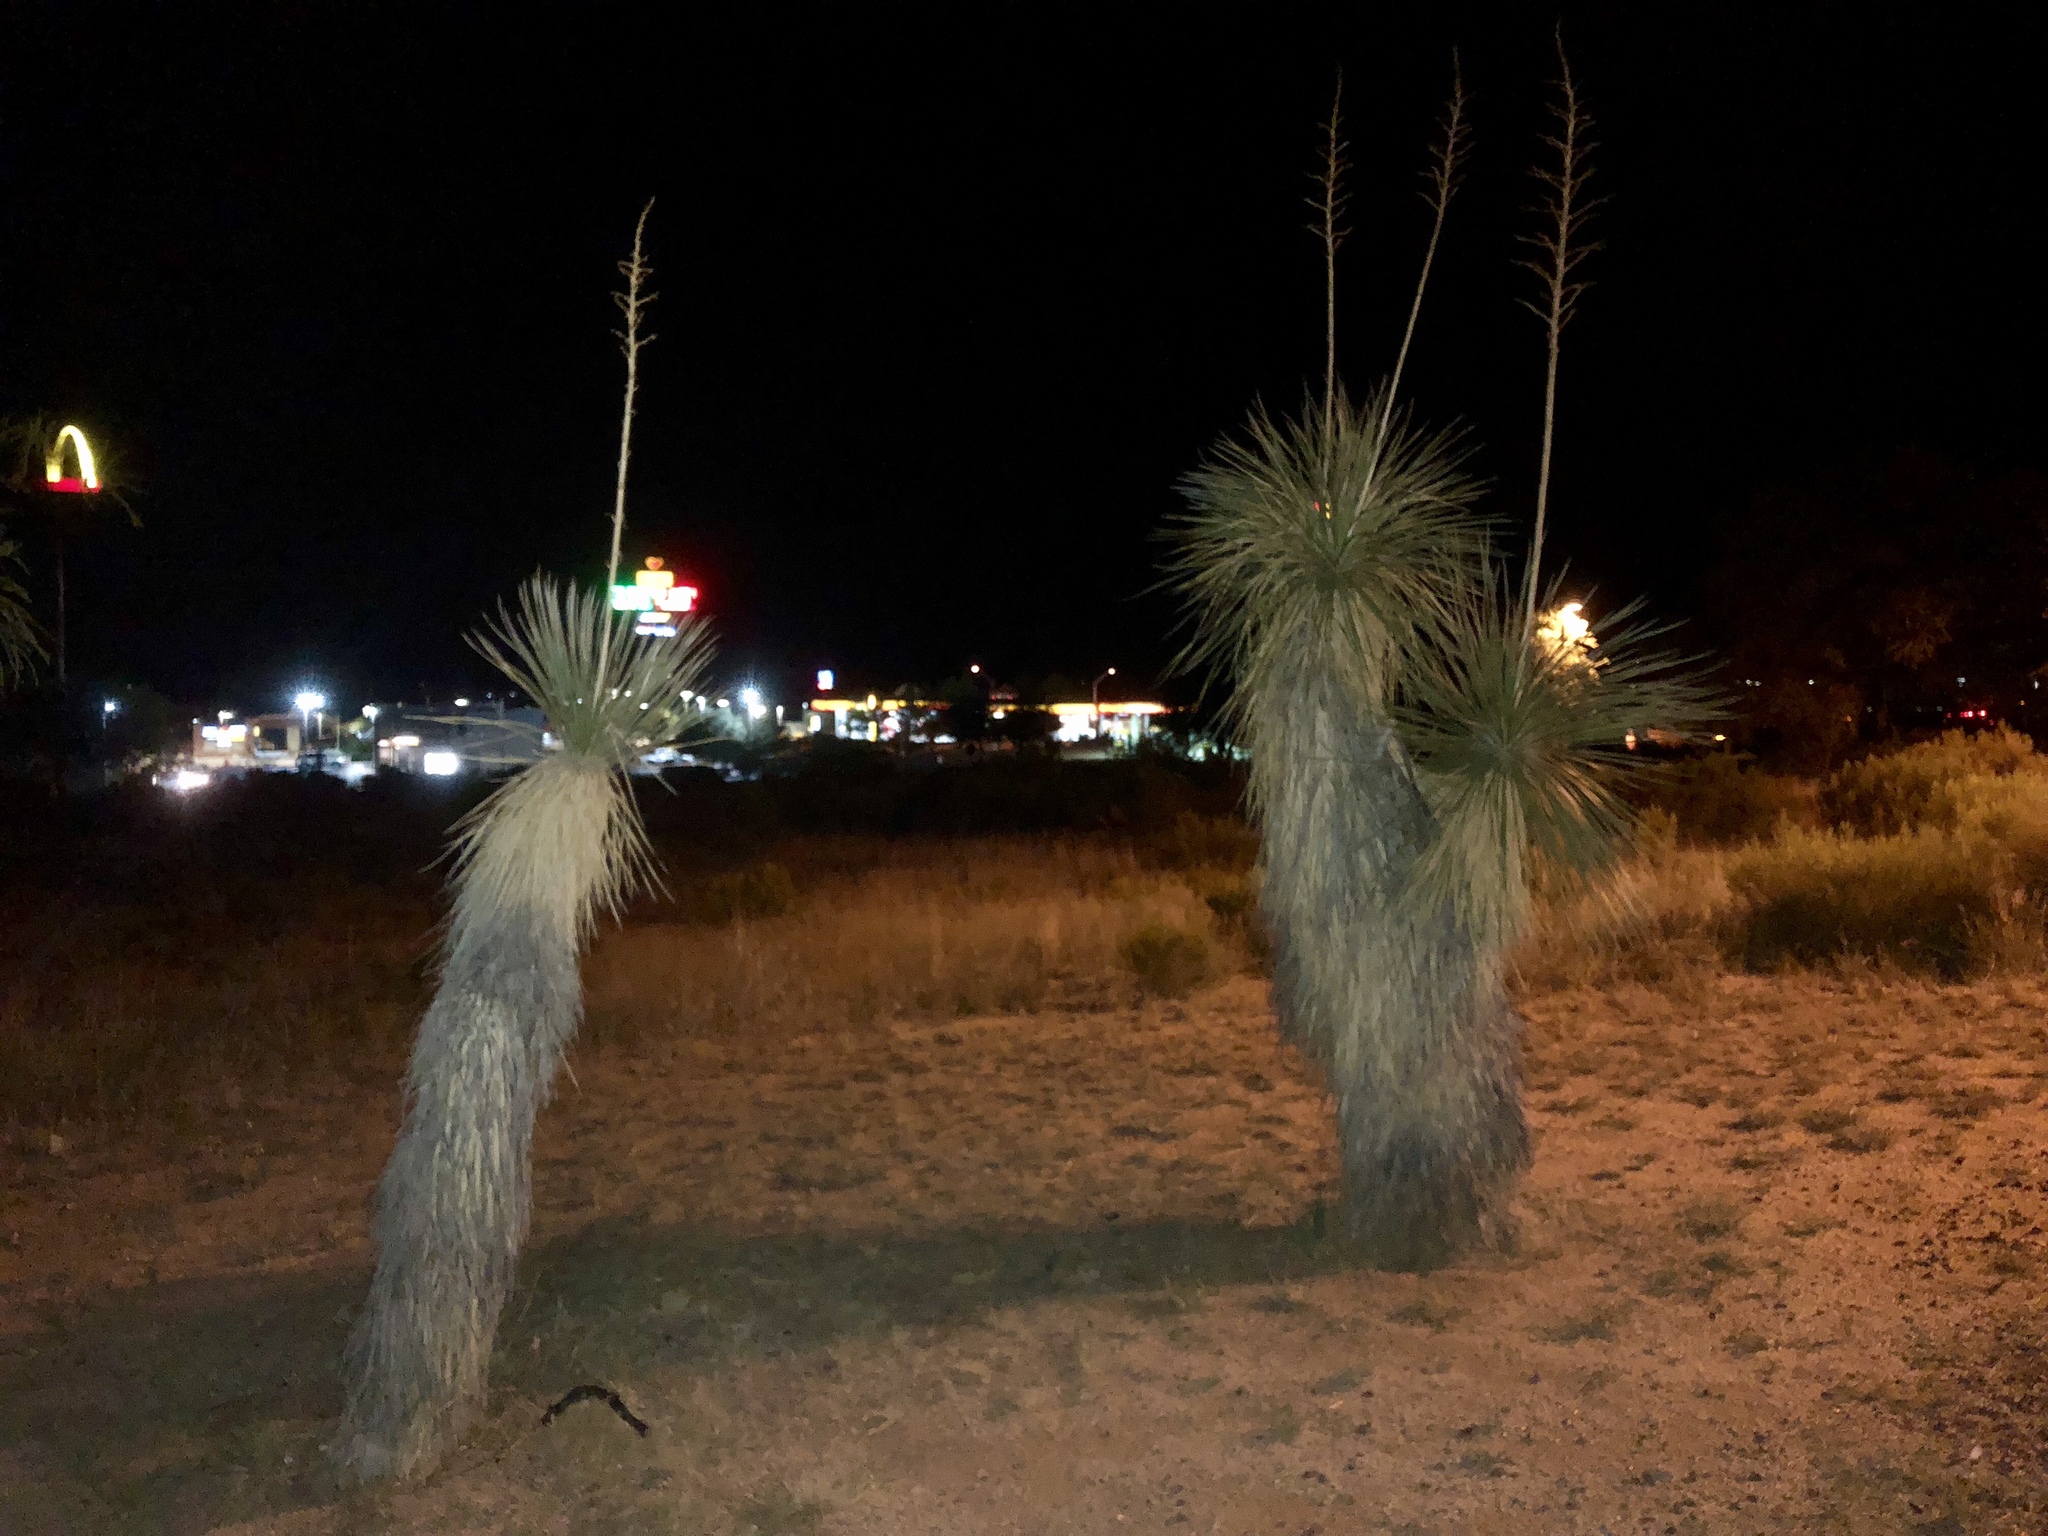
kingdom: Plantae
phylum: Tracheophyta
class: Liliopsida
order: Asparagales
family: Asparagaceae
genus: Yucca
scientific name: Yucca elata
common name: Palmella
